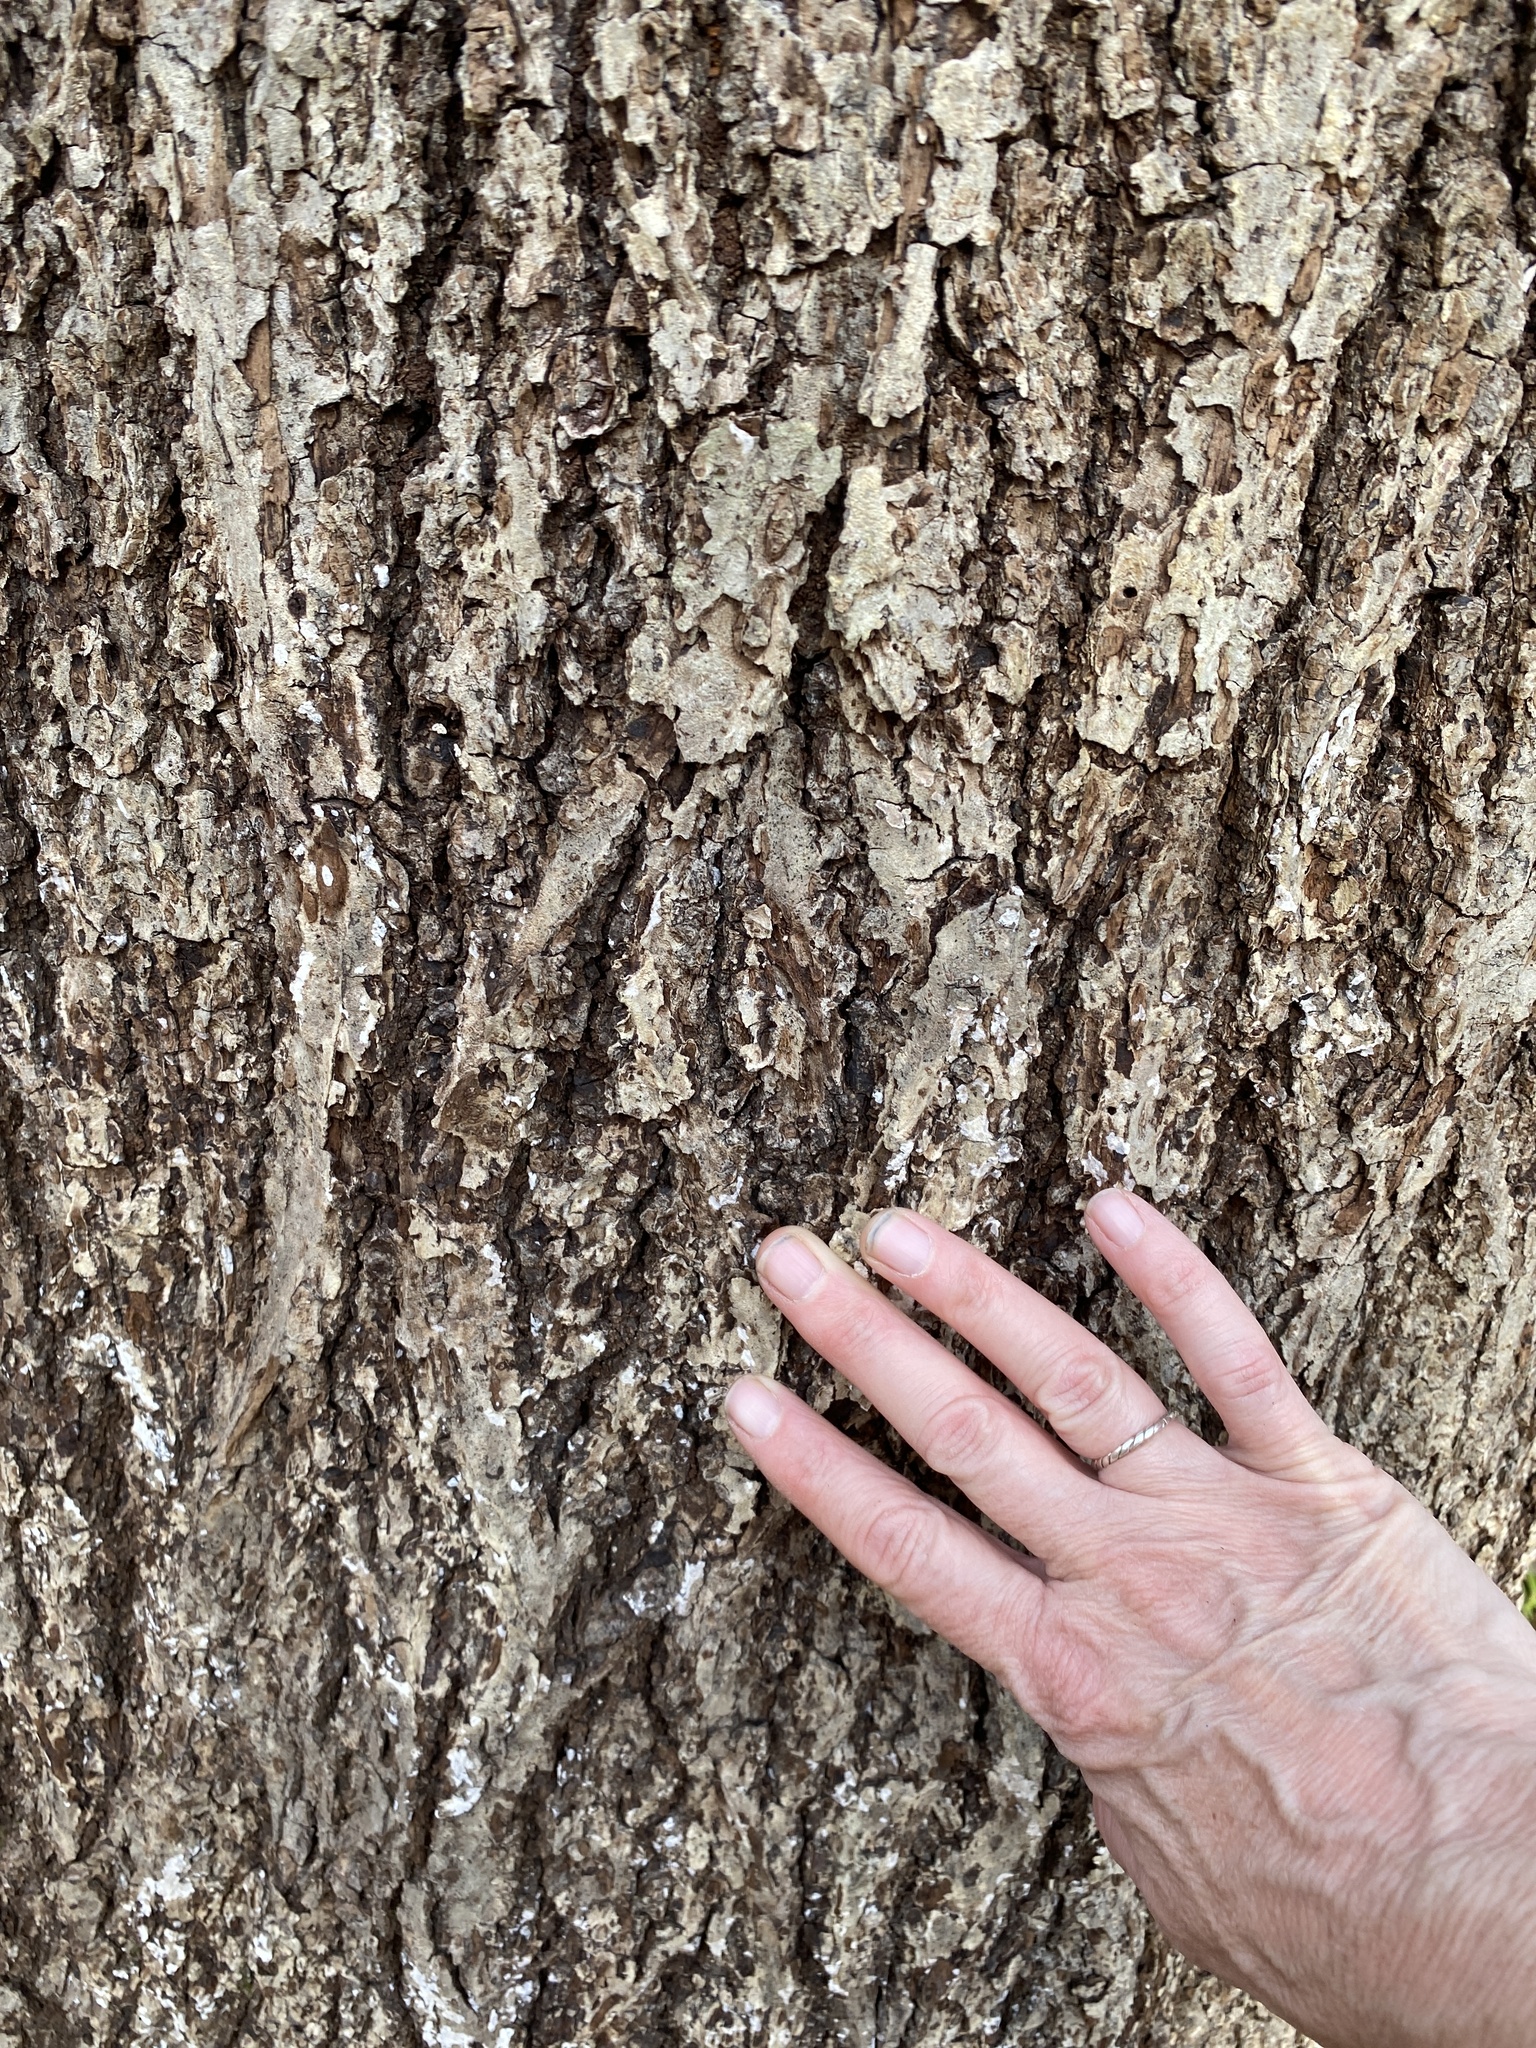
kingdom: Plantae
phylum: Tracheophyta
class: Magnoliopsida
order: Fagales
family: Juglandaceae
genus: Carya
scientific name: Carya alba
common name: Mockernut hickory
